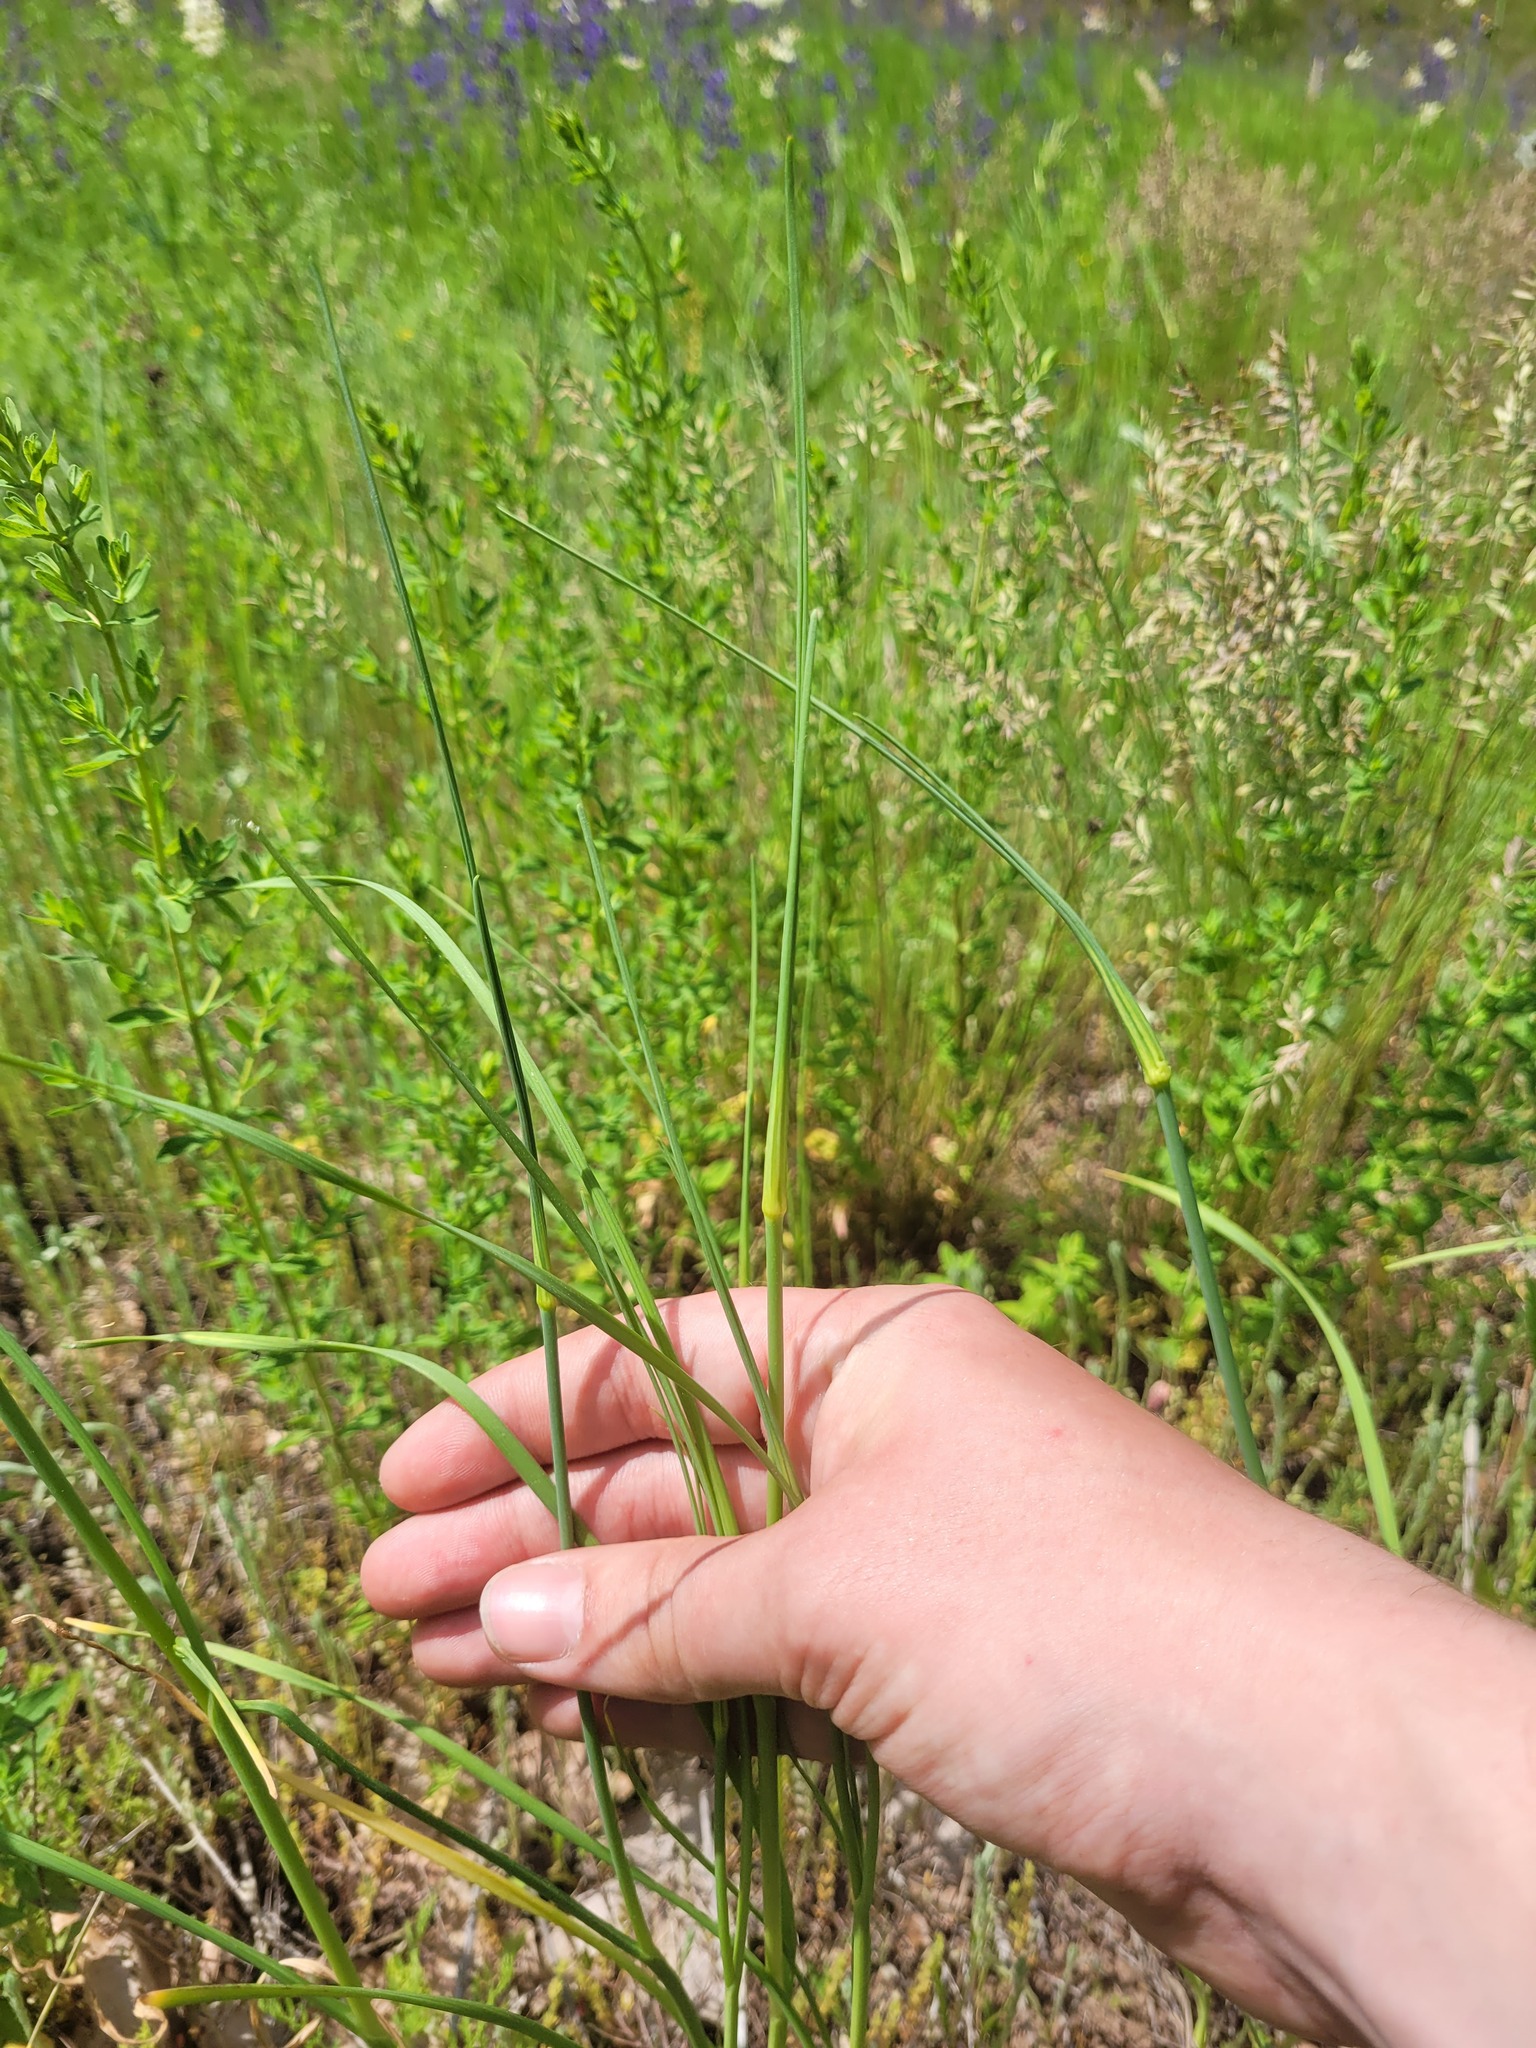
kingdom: Plantae
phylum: Tracheophyta
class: Liliopsida
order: Asparagales
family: Amaryllidaceae
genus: Allium
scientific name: Allium oleraceum
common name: Field garlic
